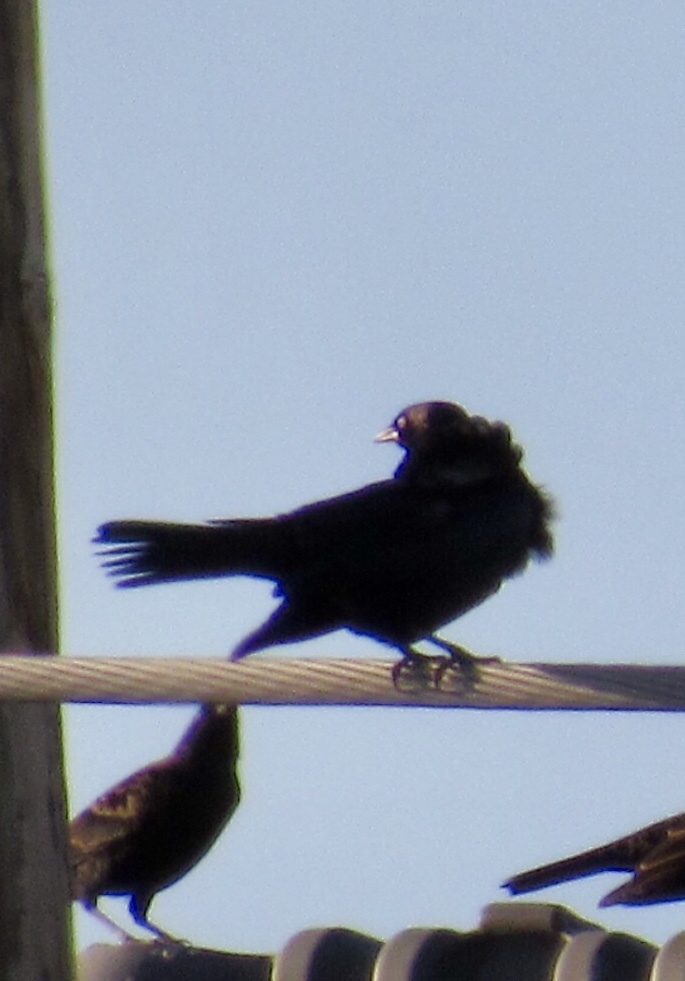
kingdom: Animalia
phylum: Chordata
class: Aves
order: Passeriformes
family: Icteridae
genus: Quiscalus
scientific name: Quiscalus mexicanus
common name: Great-tailed grackle
